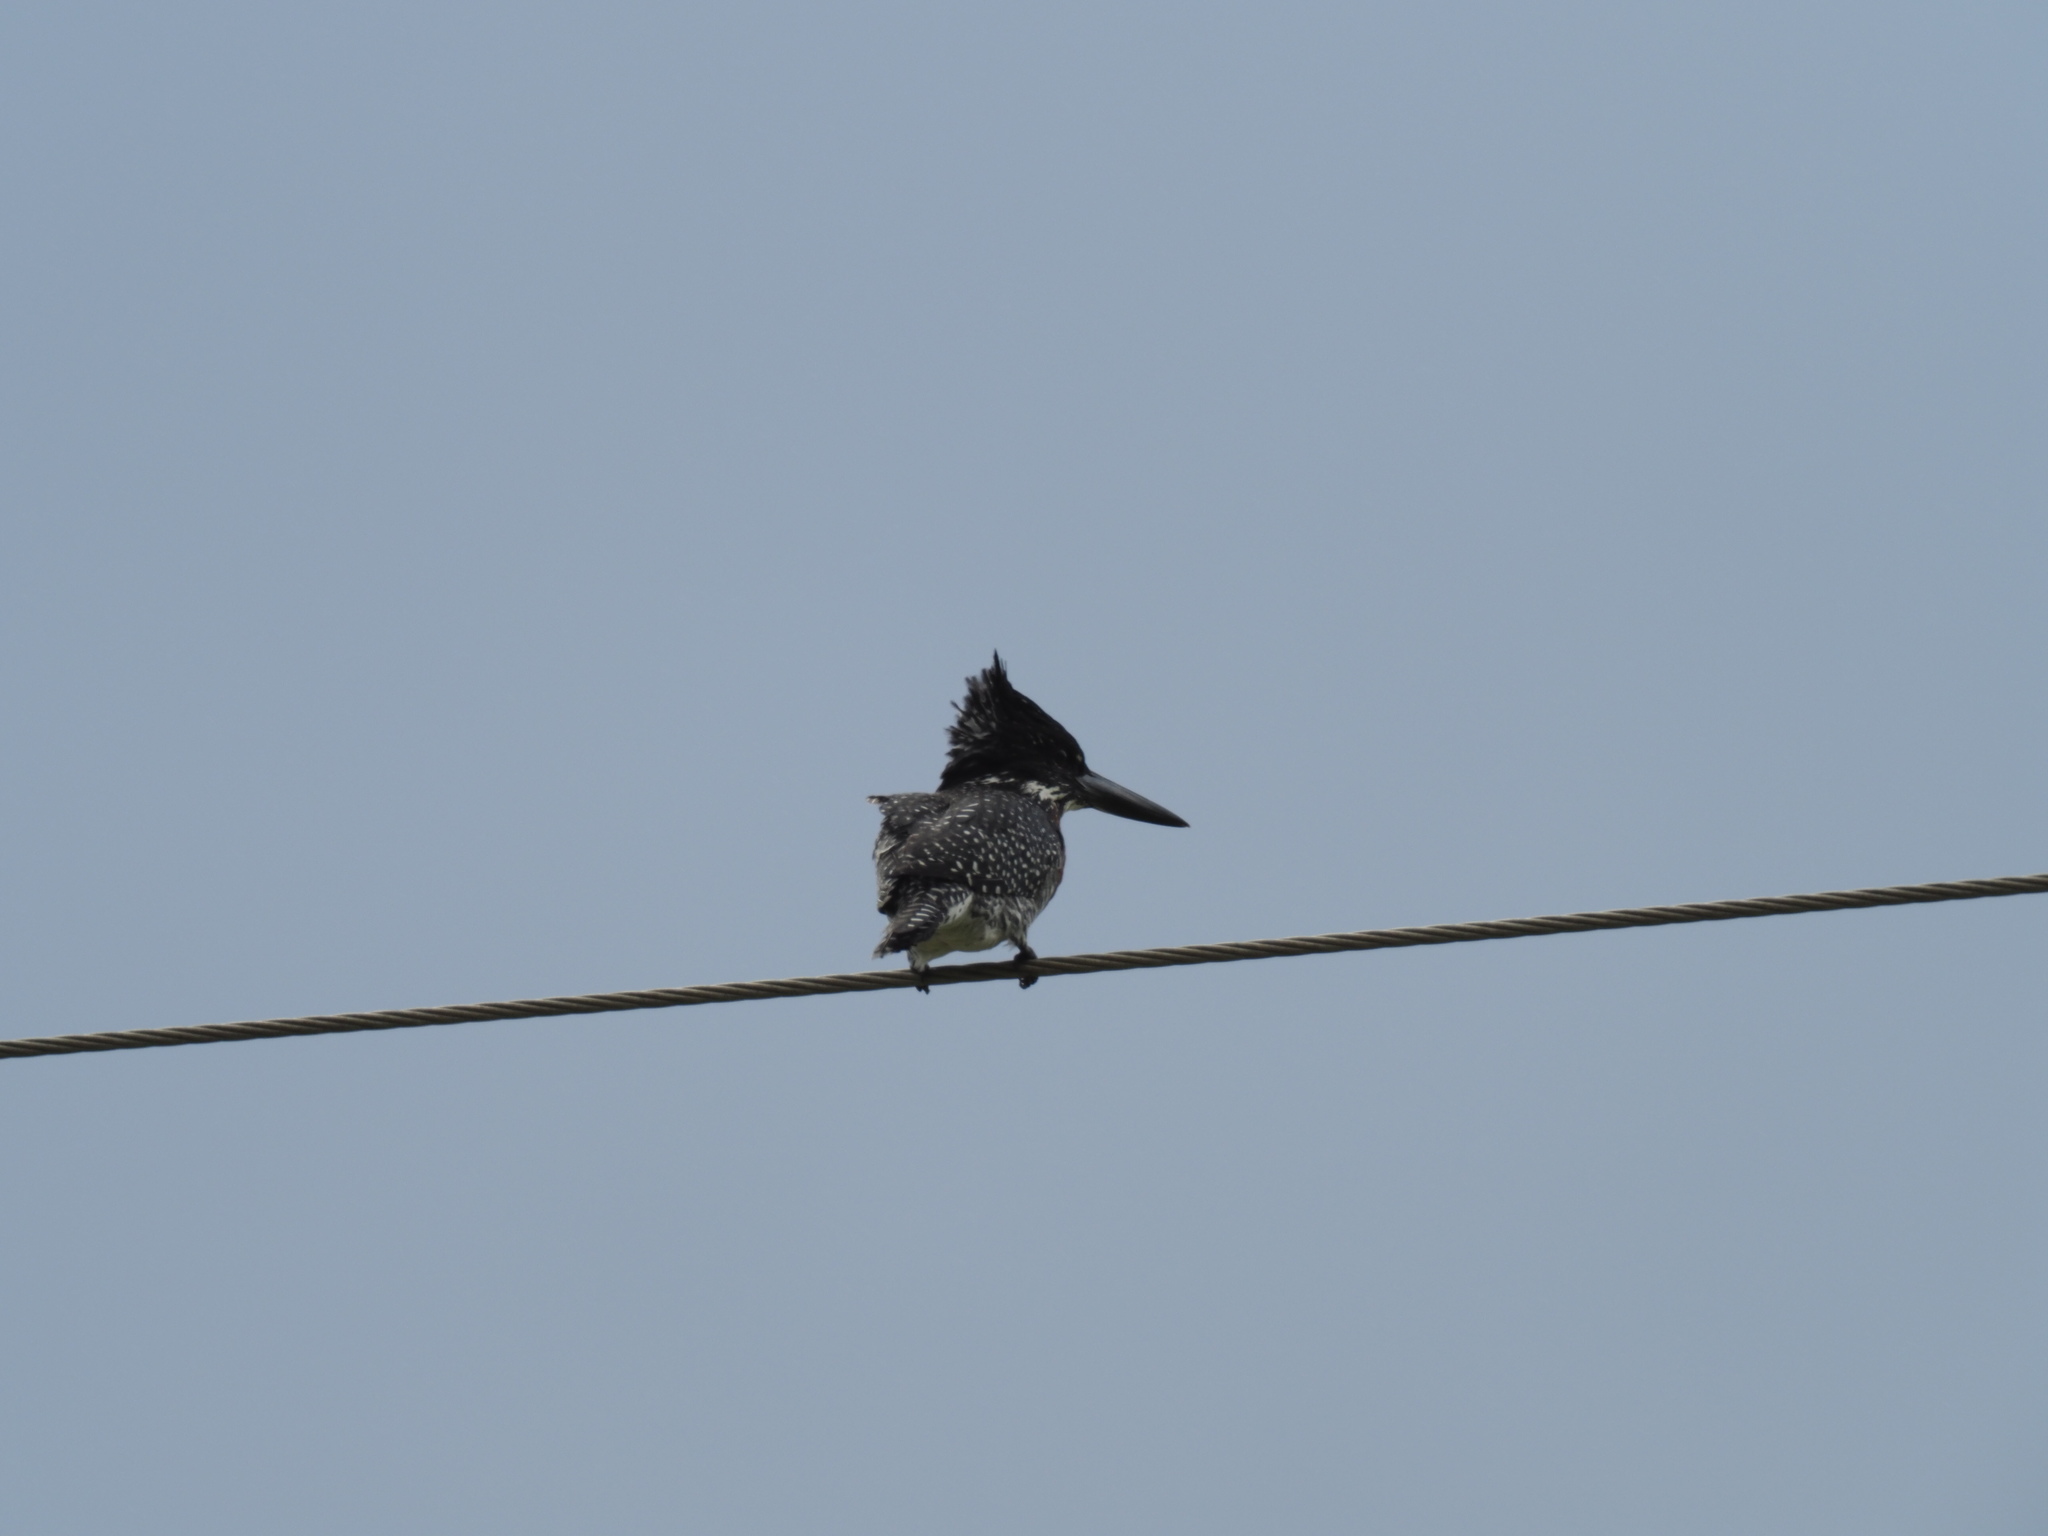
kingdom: Animalia
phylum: Chordata
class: Aves
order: Coraciiformes
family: Alcedinidae
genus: Megaceryle
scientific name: Megaceryle maxima
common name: Giant kingfisher
